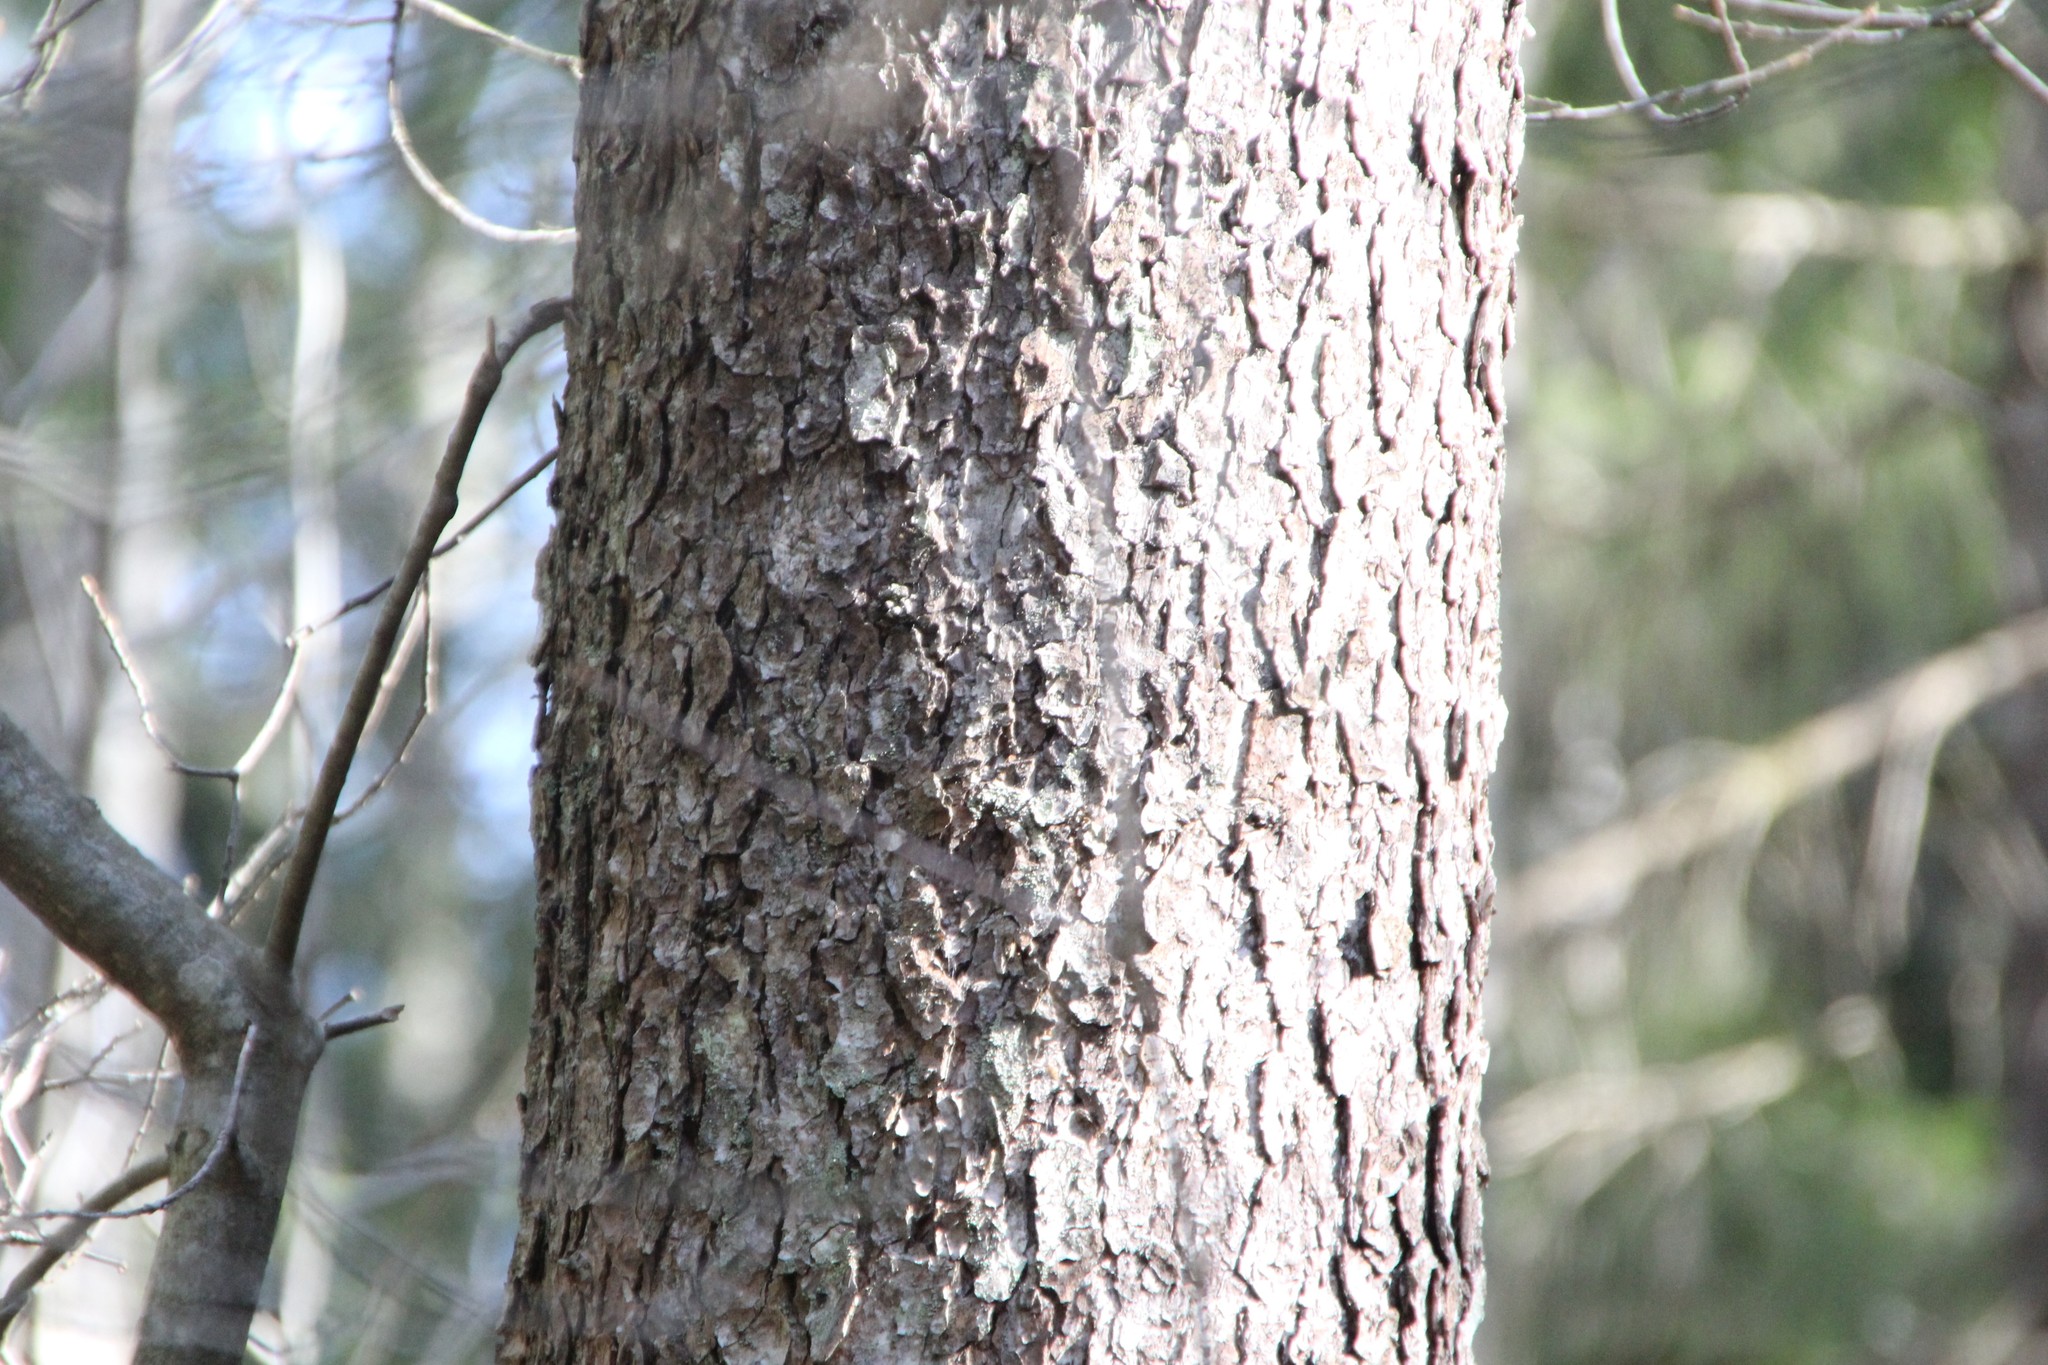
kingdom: Plantae
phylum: Tracheophyta
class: Magnoliopsida
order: Fagales
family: Betulaceae
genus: Alnus
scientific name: Alnus glutinosa
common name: Black alder
